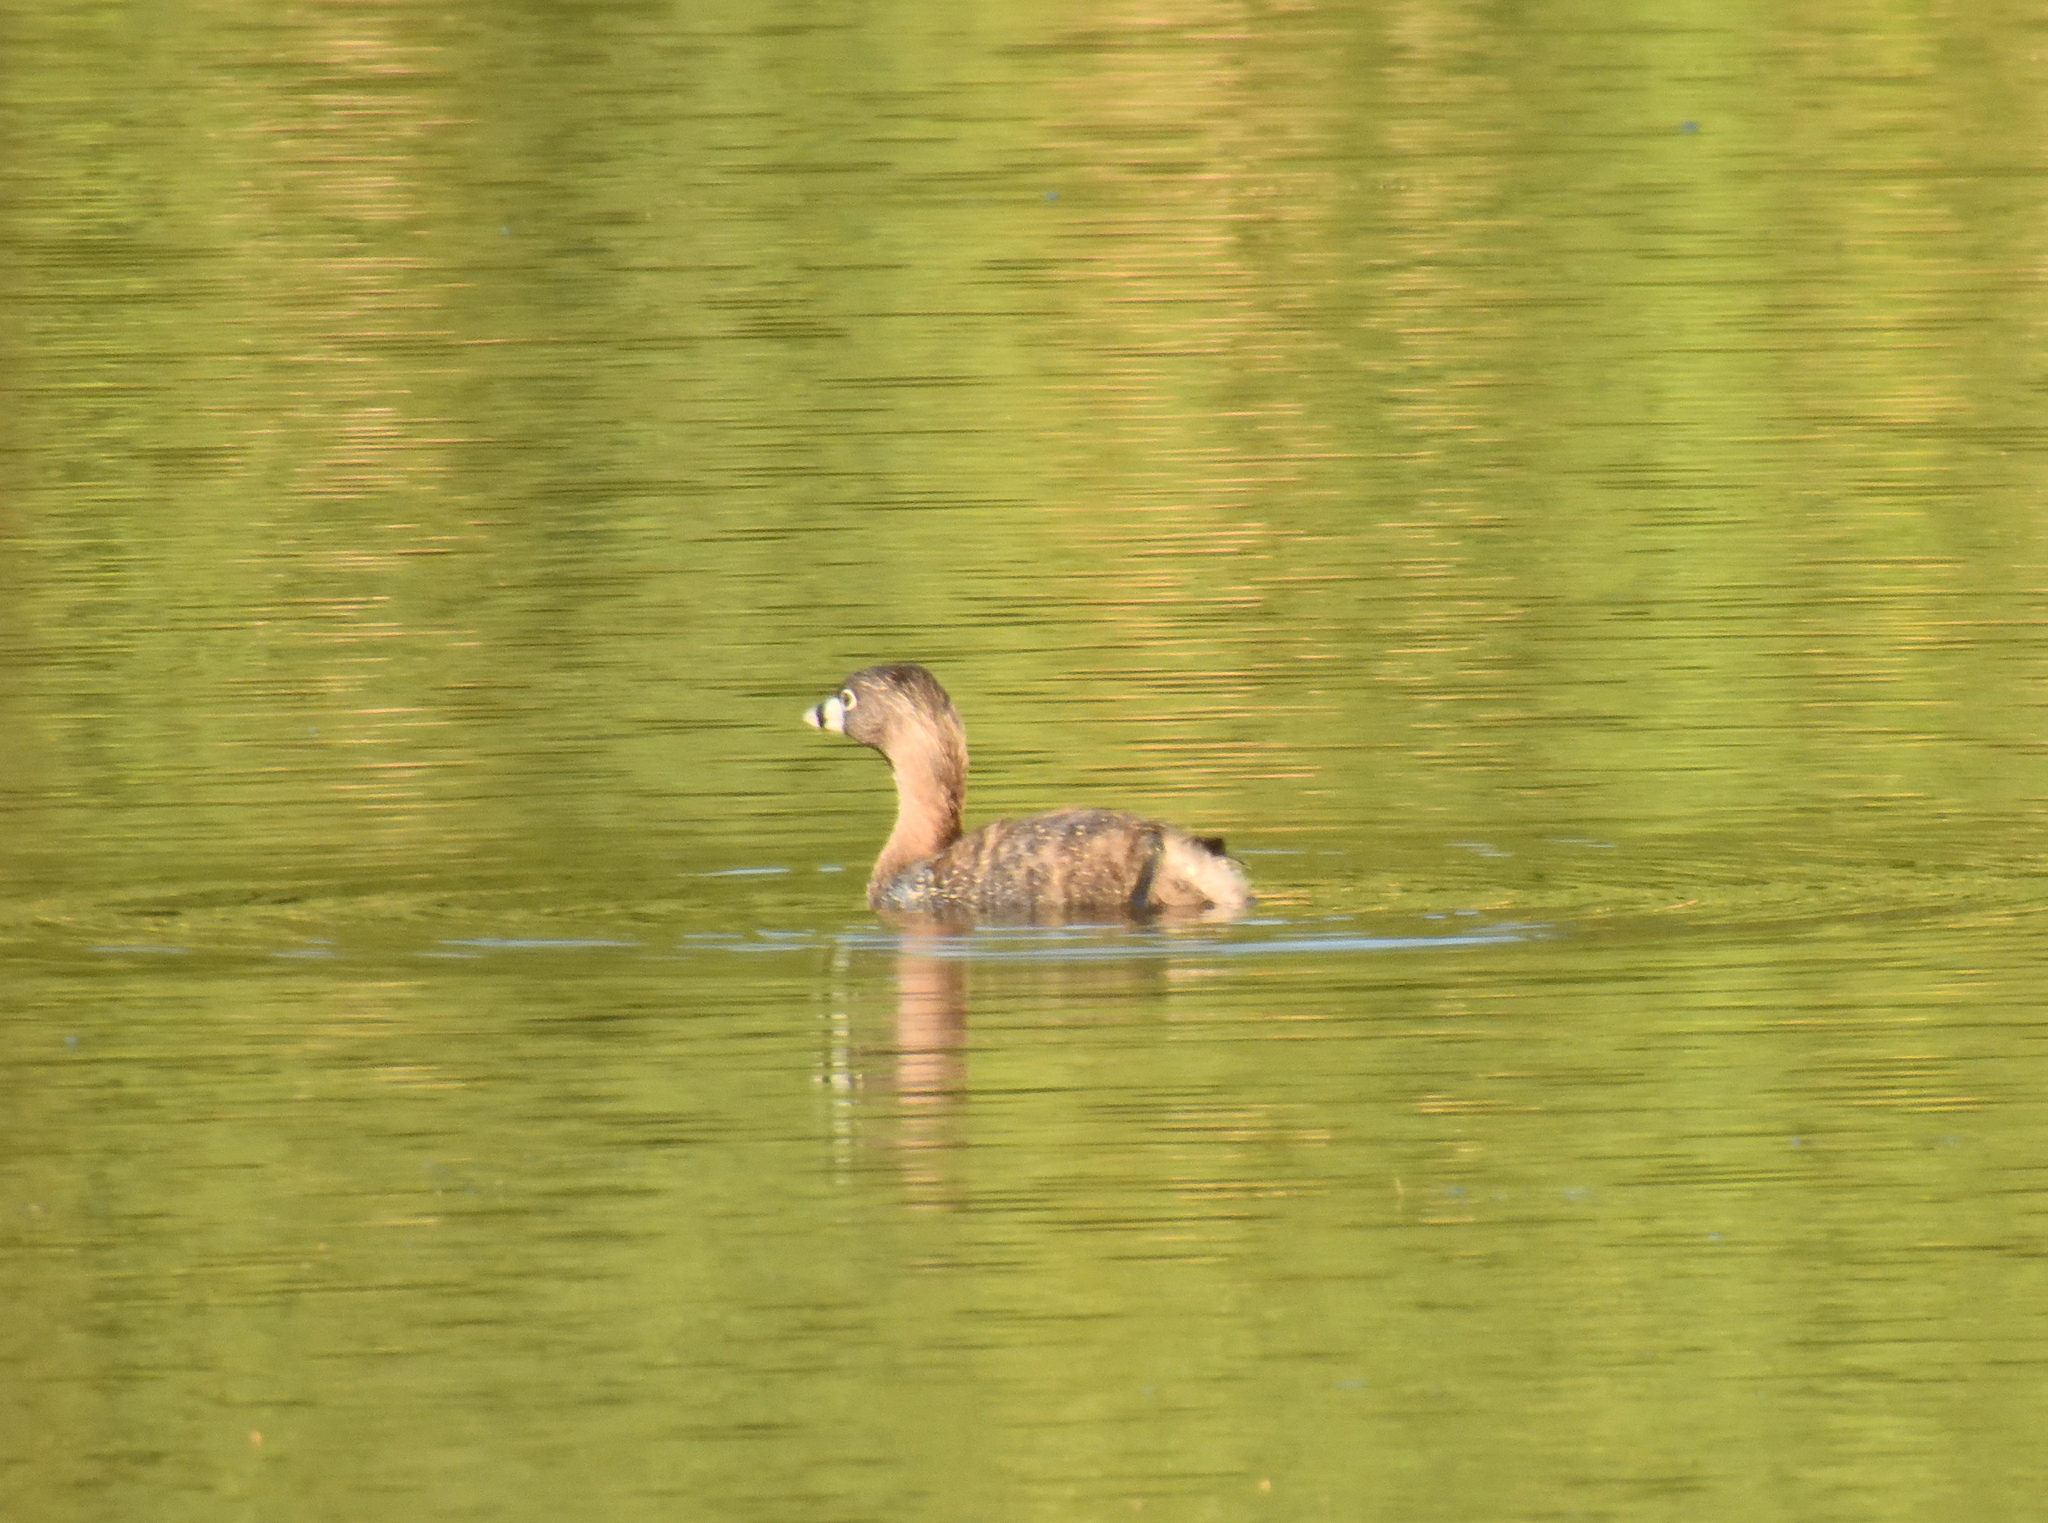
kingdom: Animalia
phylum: Chordata
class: Aves
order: Podicipediformes
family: Podicipedidae
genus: Podilymbus
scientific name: Podilymbus podiceps
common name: Pied-billed grebe
